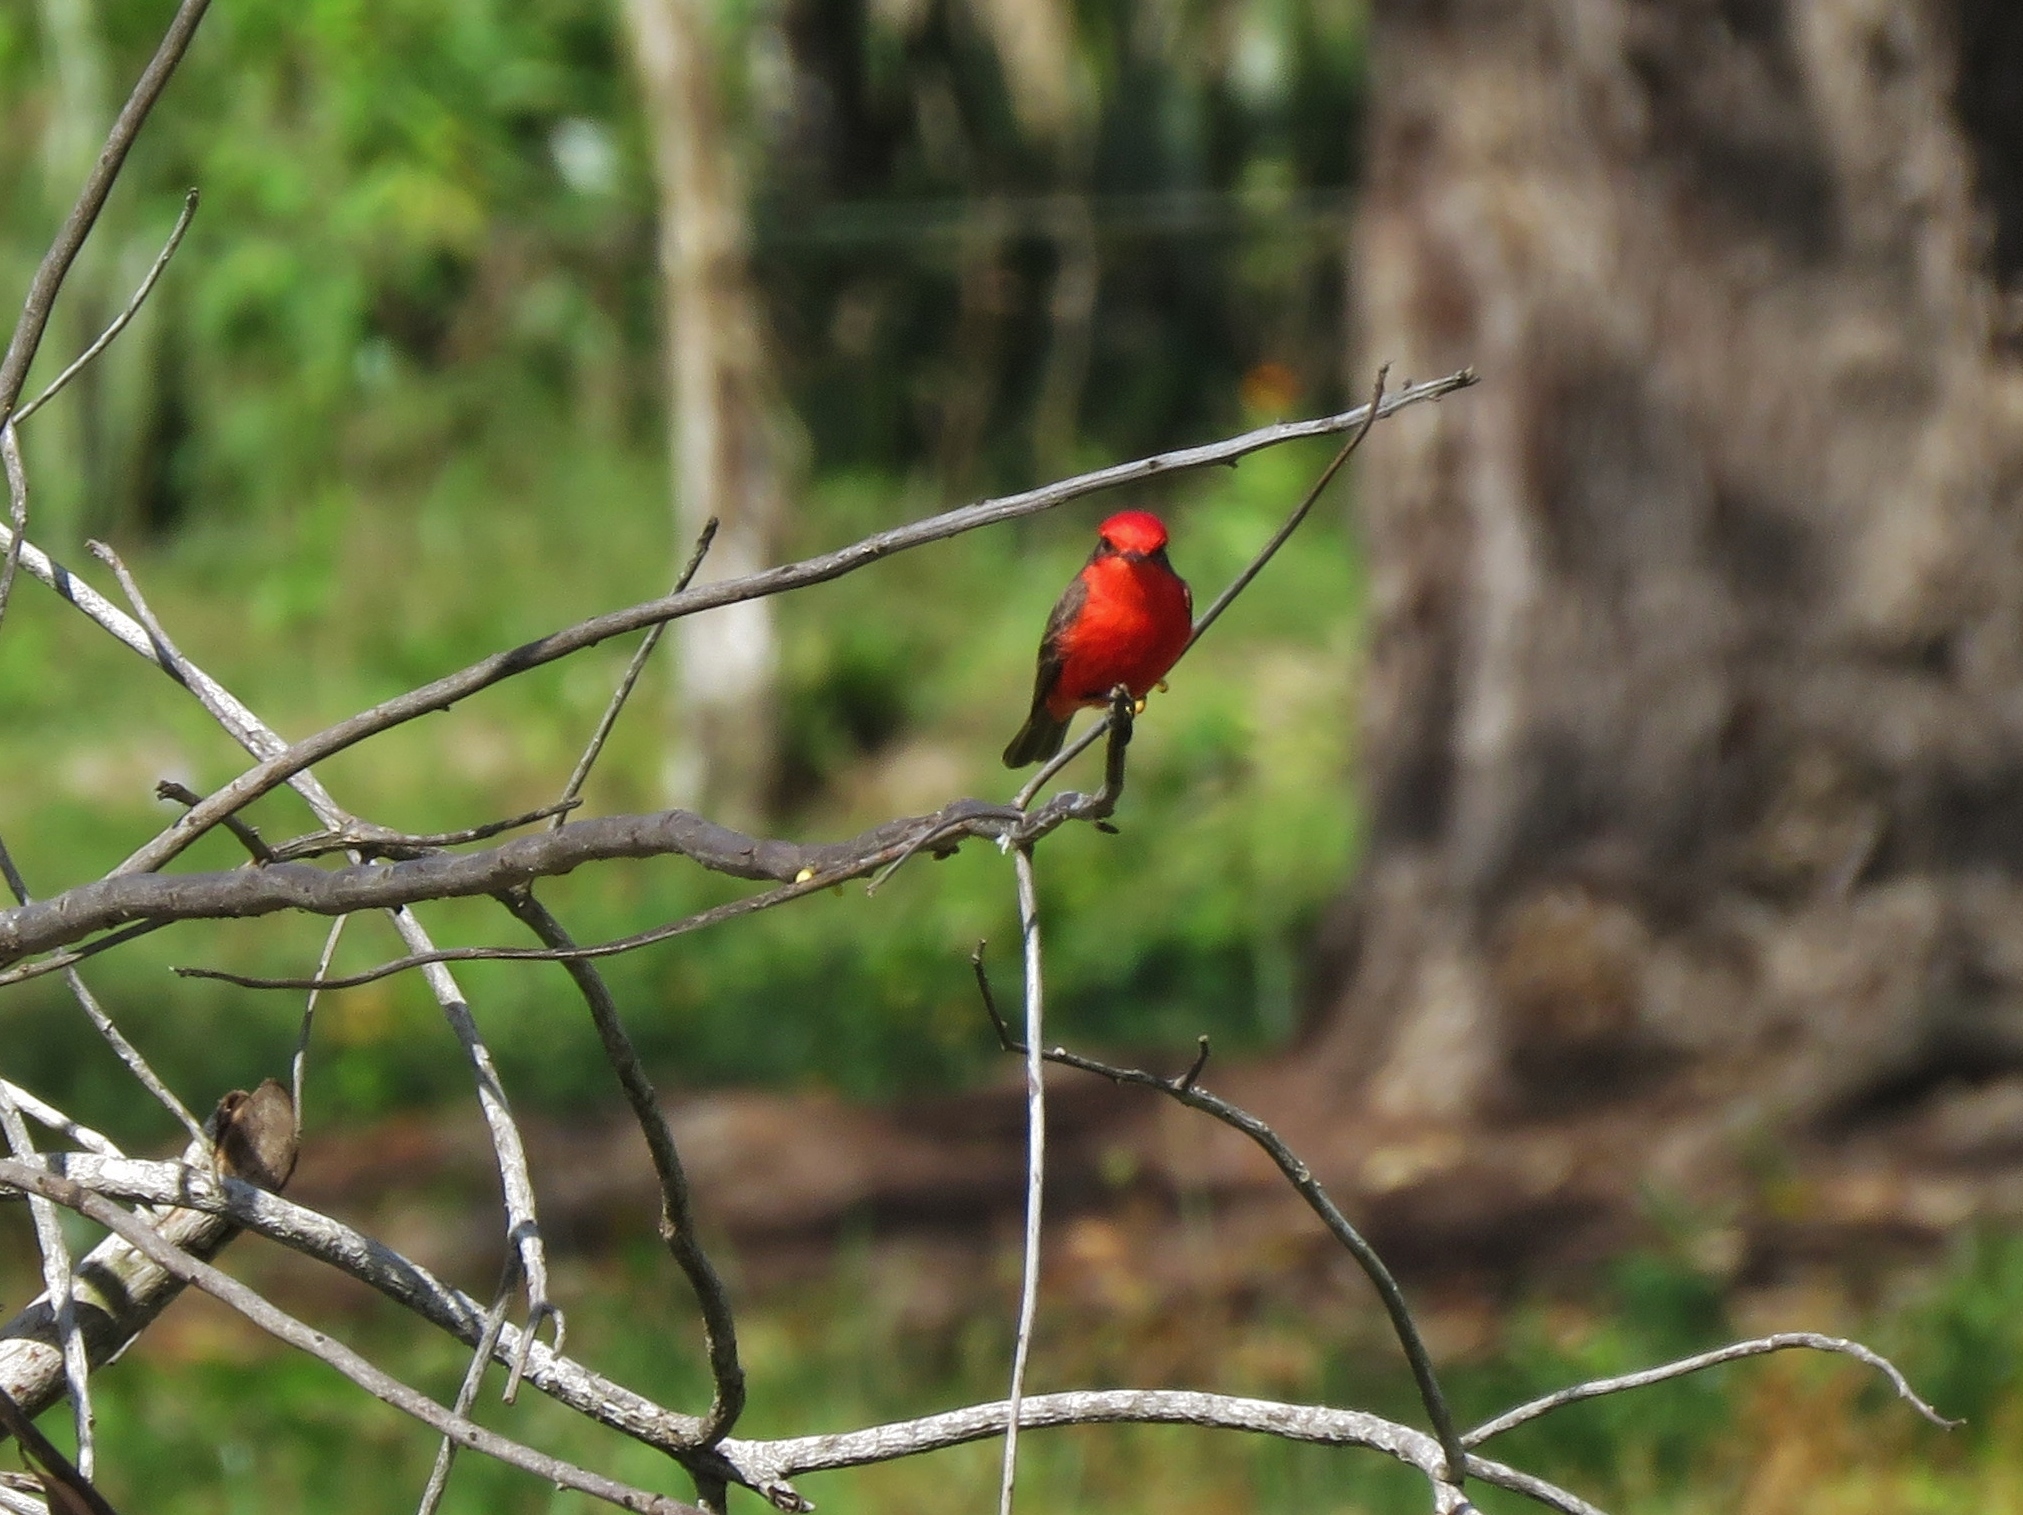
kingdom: Animalia
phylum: Chordata
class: Aves
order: Passeriformes
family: Tyrannidae
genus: Pyrocephalus
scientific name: Pyrocephalus rubinus
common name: Vermilion flycatcher
